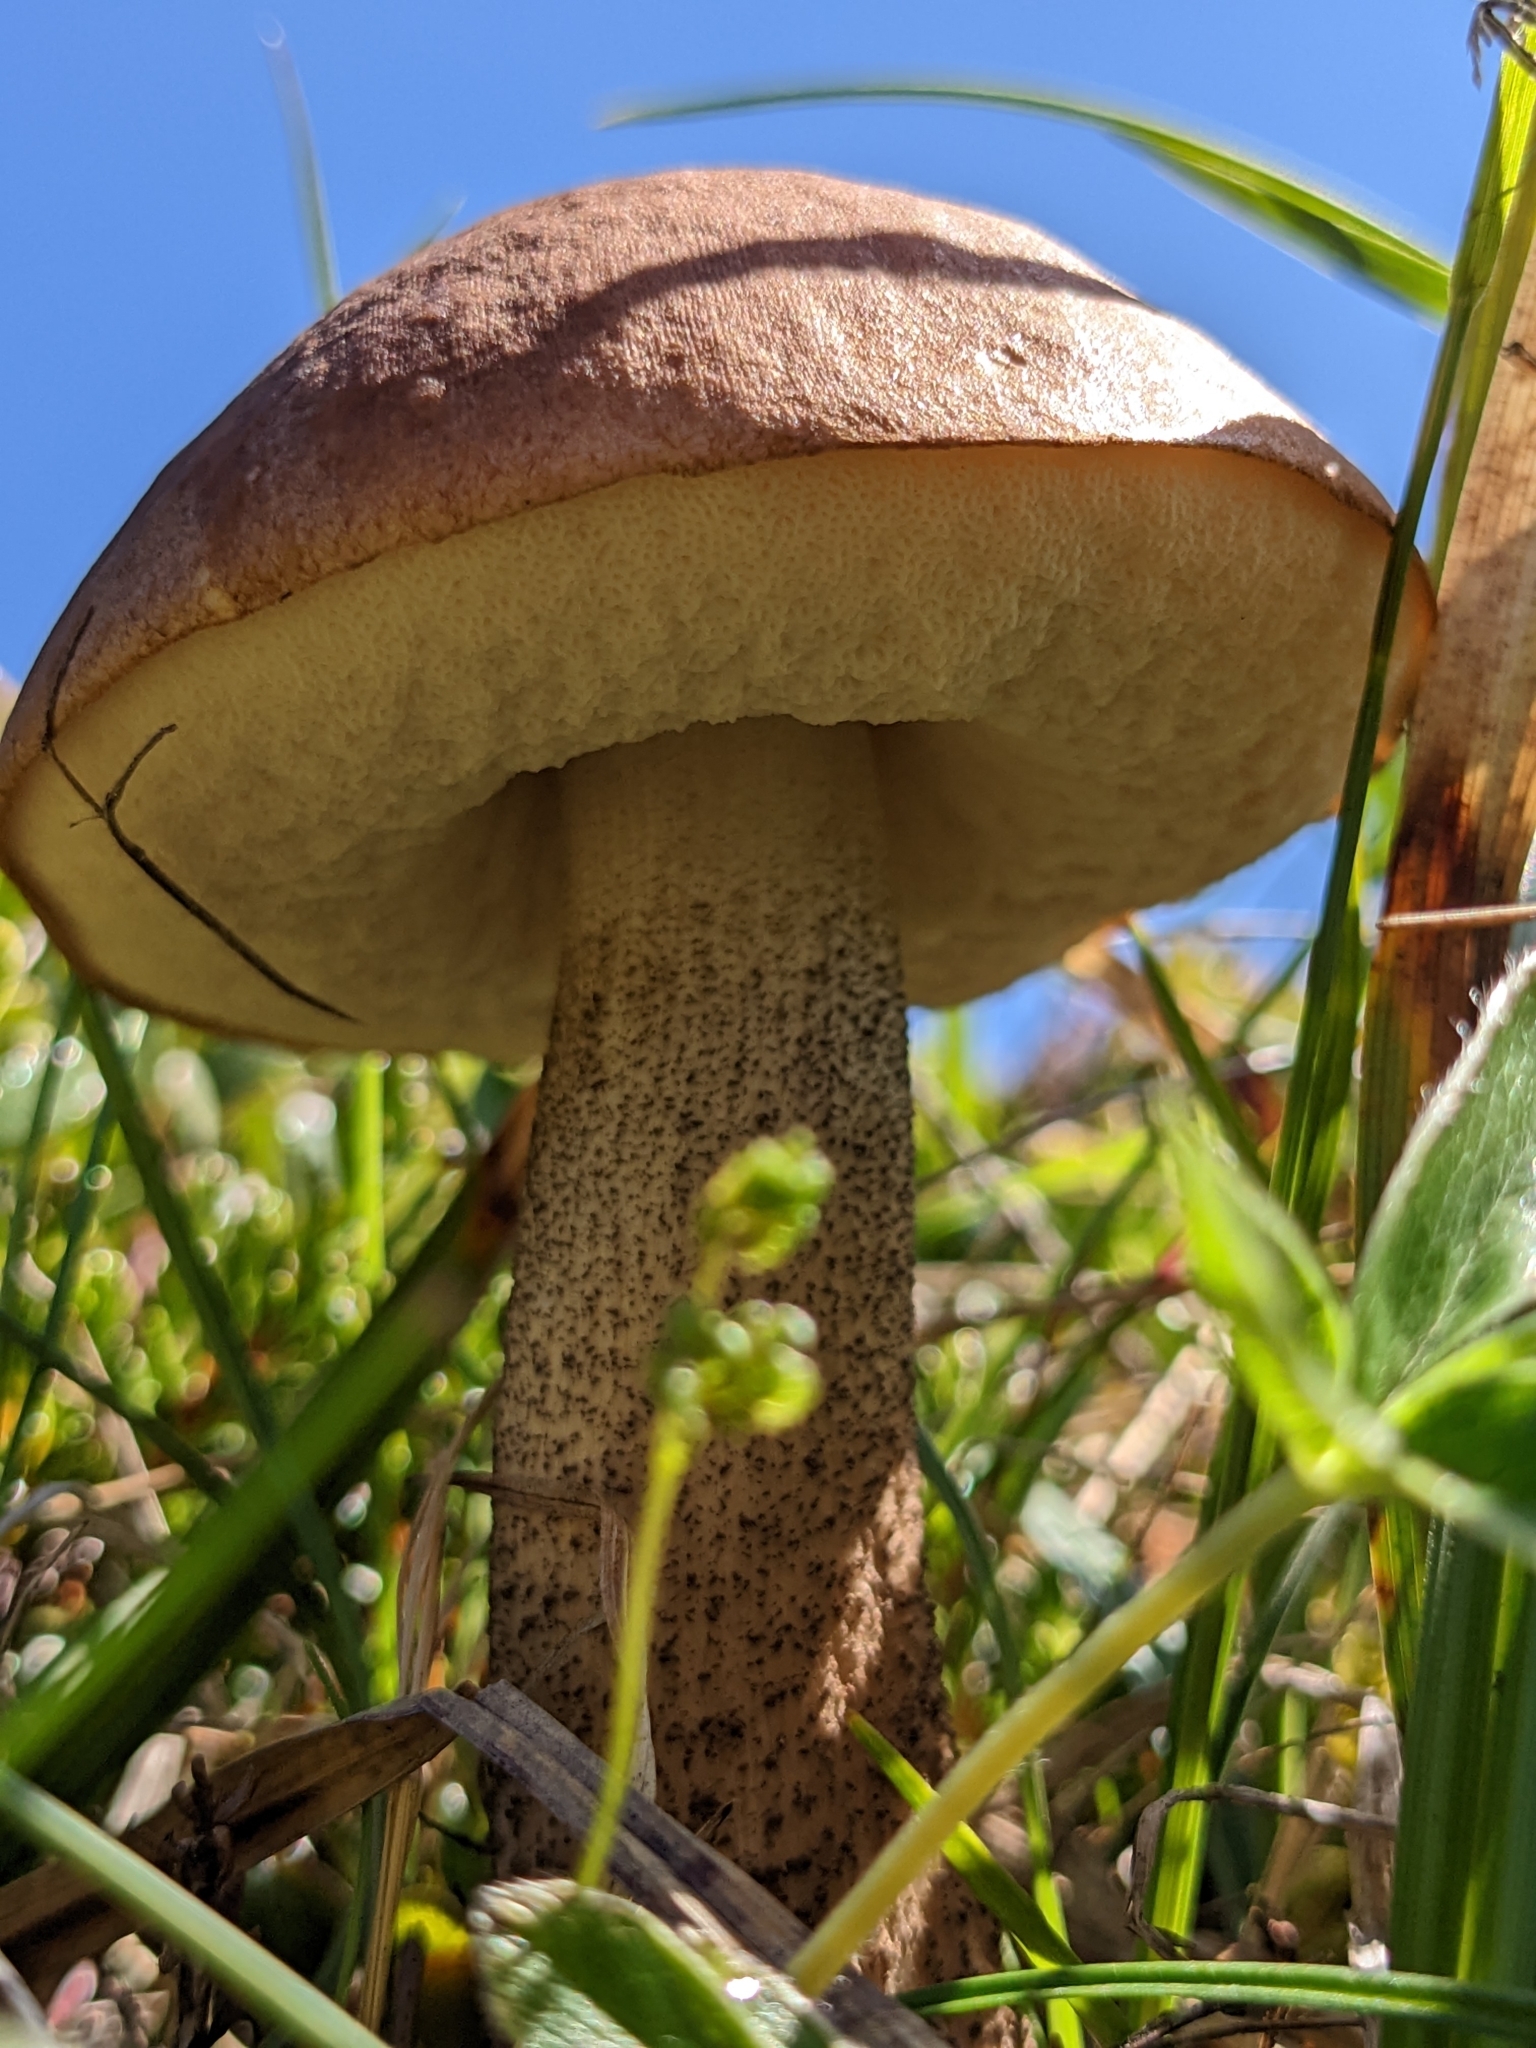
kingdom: Fungi
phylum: Basidiomycota
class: Agaricomycetes
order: Boletales
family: Boletaceae
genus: Leccinum
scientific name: Leccinum scabrum
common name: Blushing bolete
